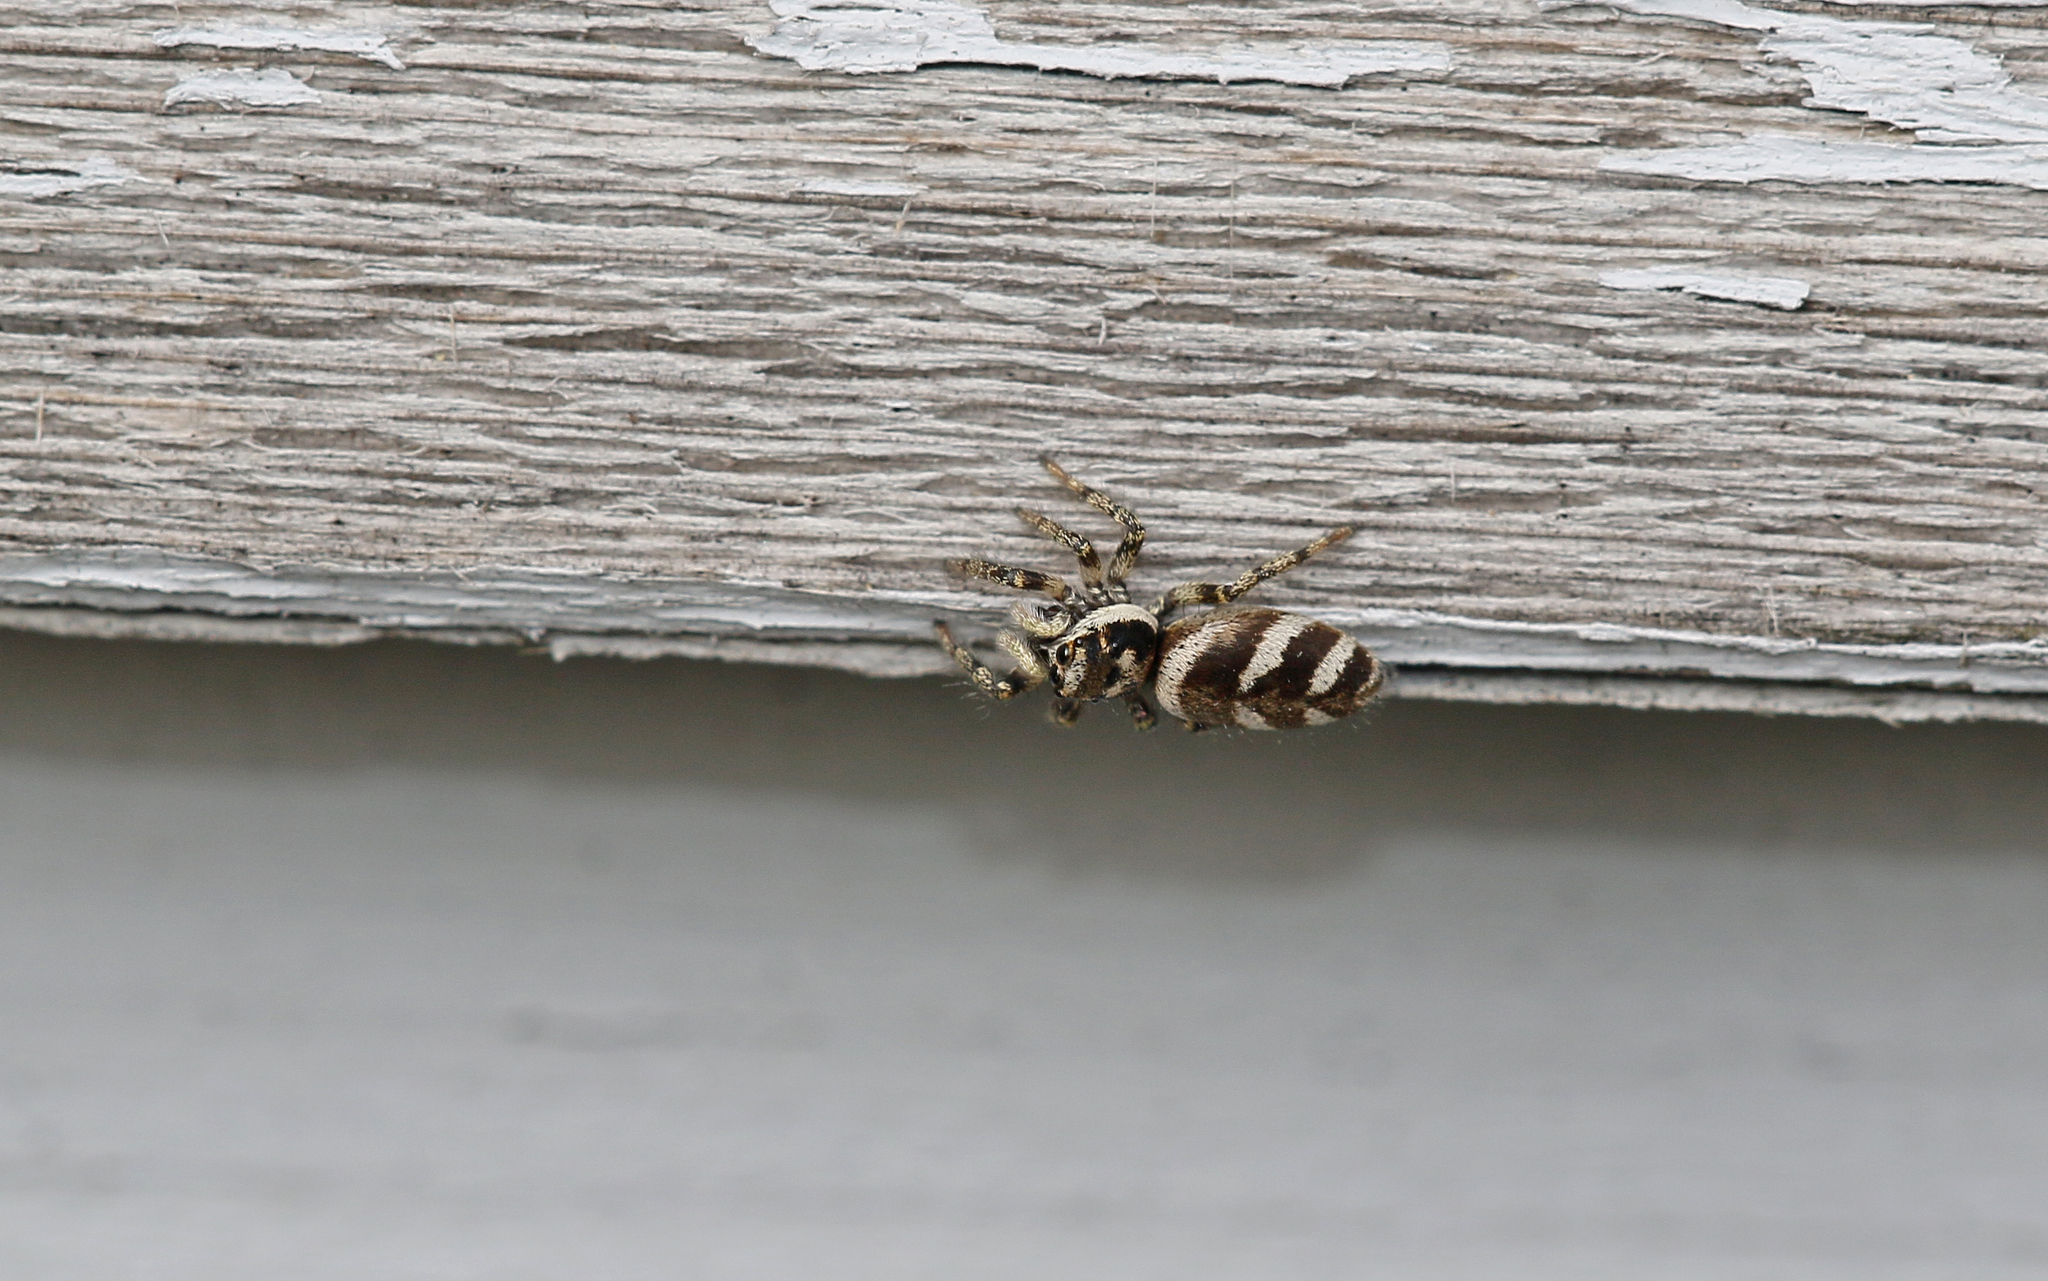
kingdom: Animalia
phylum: Arthropoda
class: Arachnida
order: Araneae
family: Salticidae
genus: Salticus
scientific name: Salticus scenicus
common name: Zebra jumper
